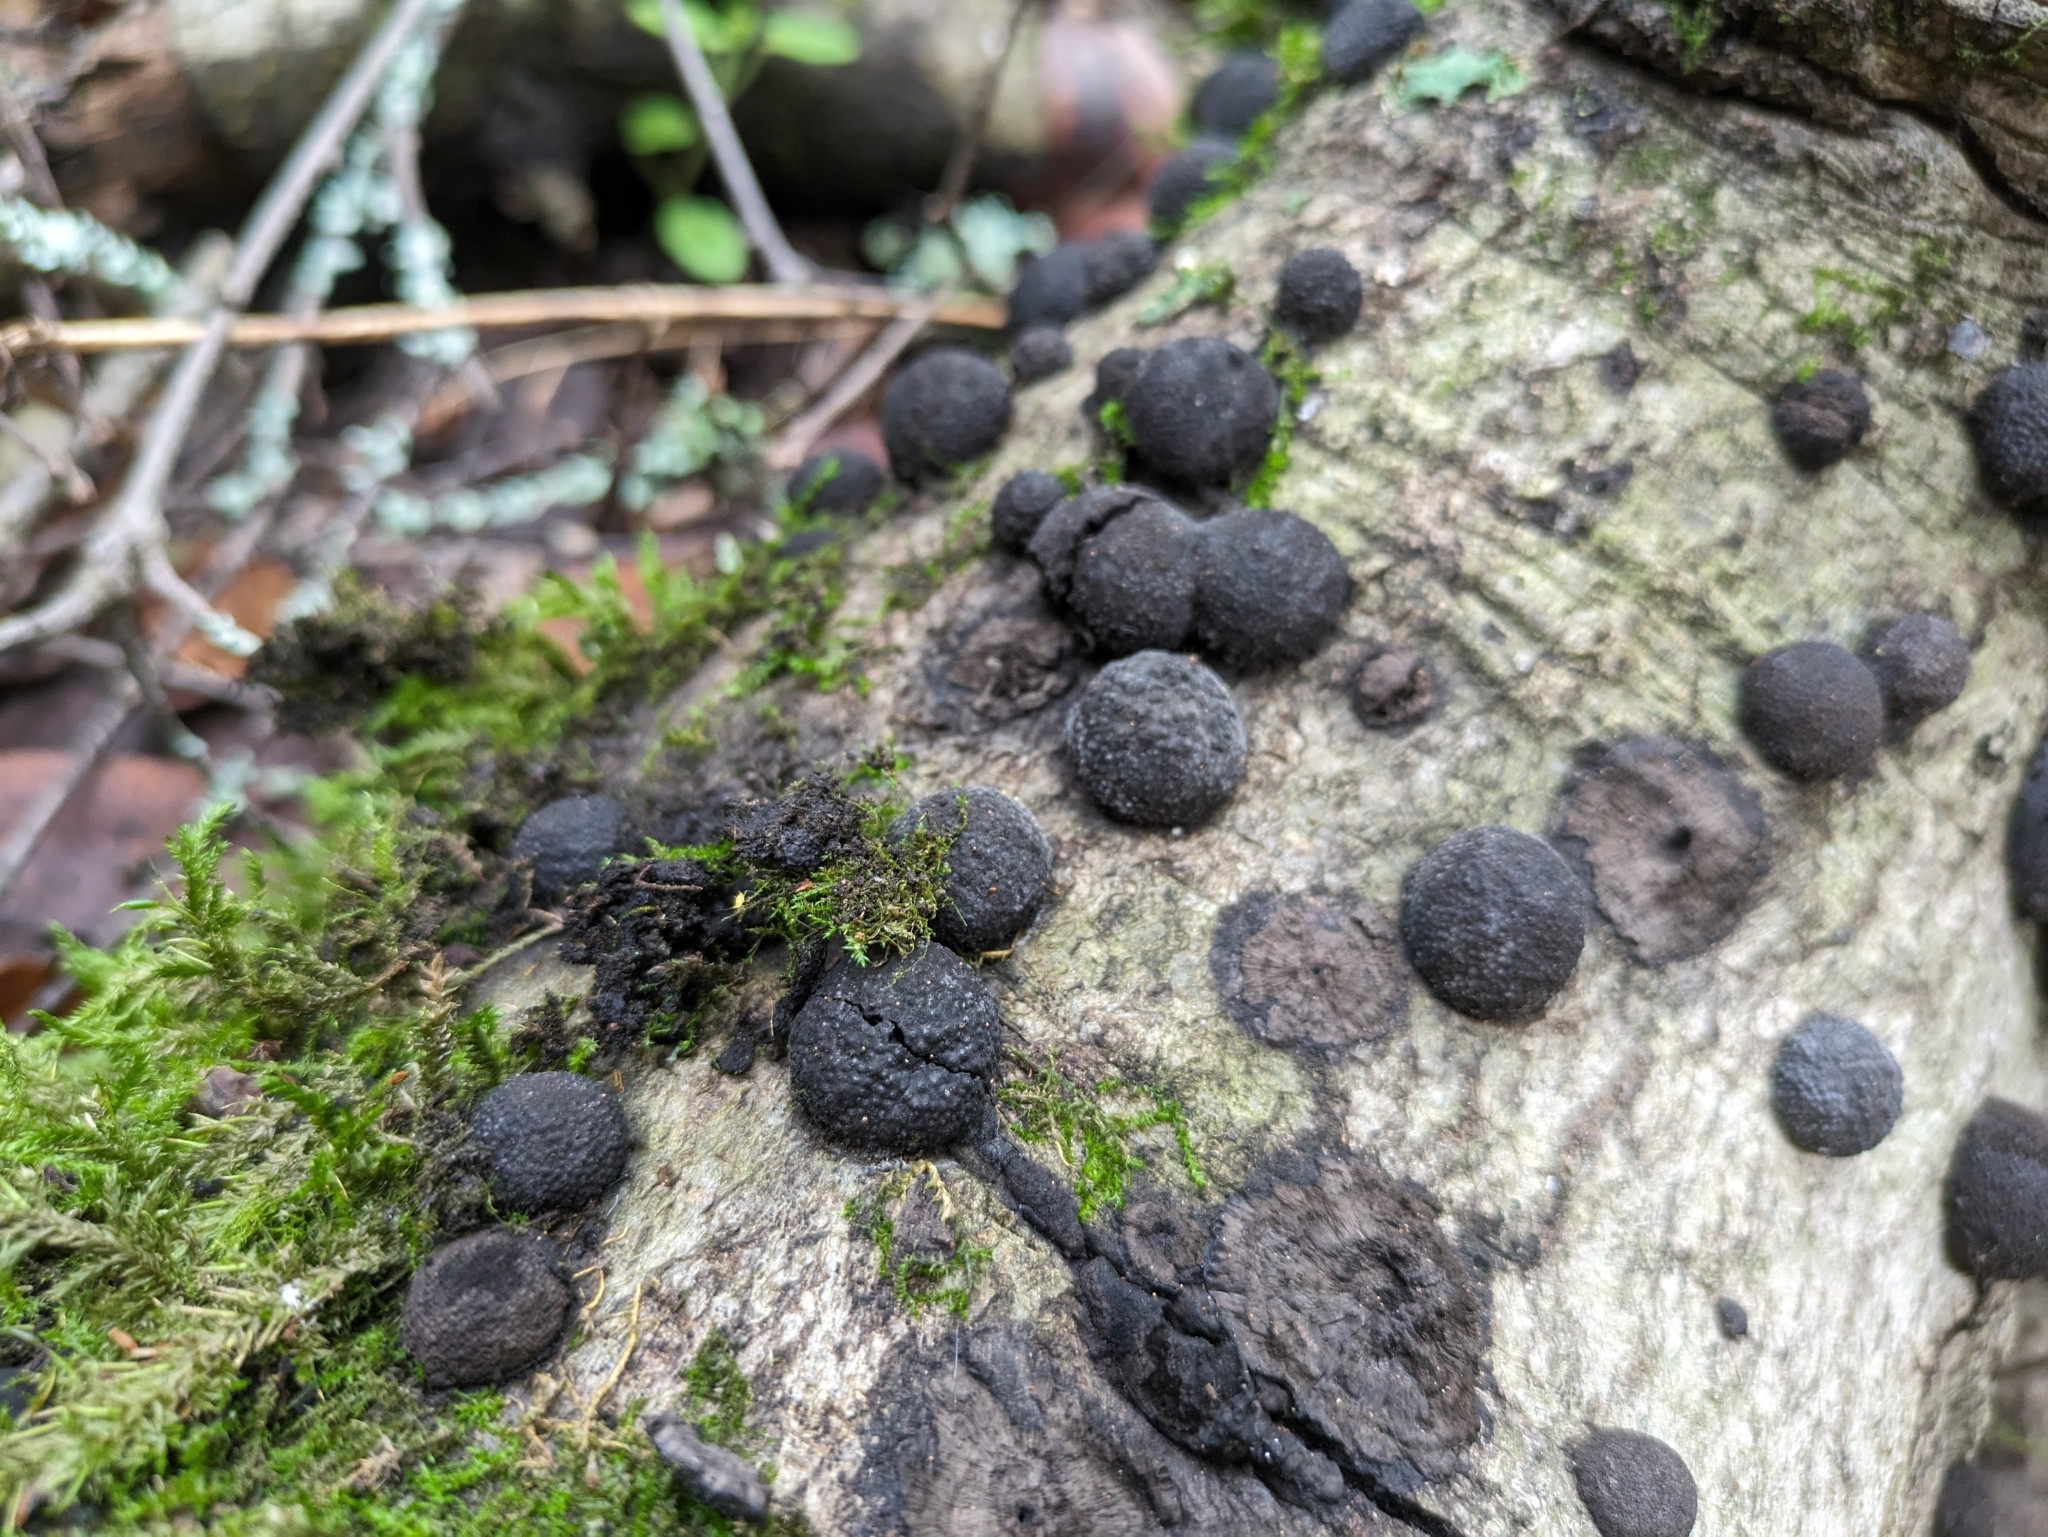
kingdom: Fungi
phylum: Ascomycota
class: Sordariomycetes
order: Xylariales
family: Hypoxylaceae
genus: Annulohypoxylon
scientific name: Annulohypoxylon thouarsianum
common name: Cramp balls
